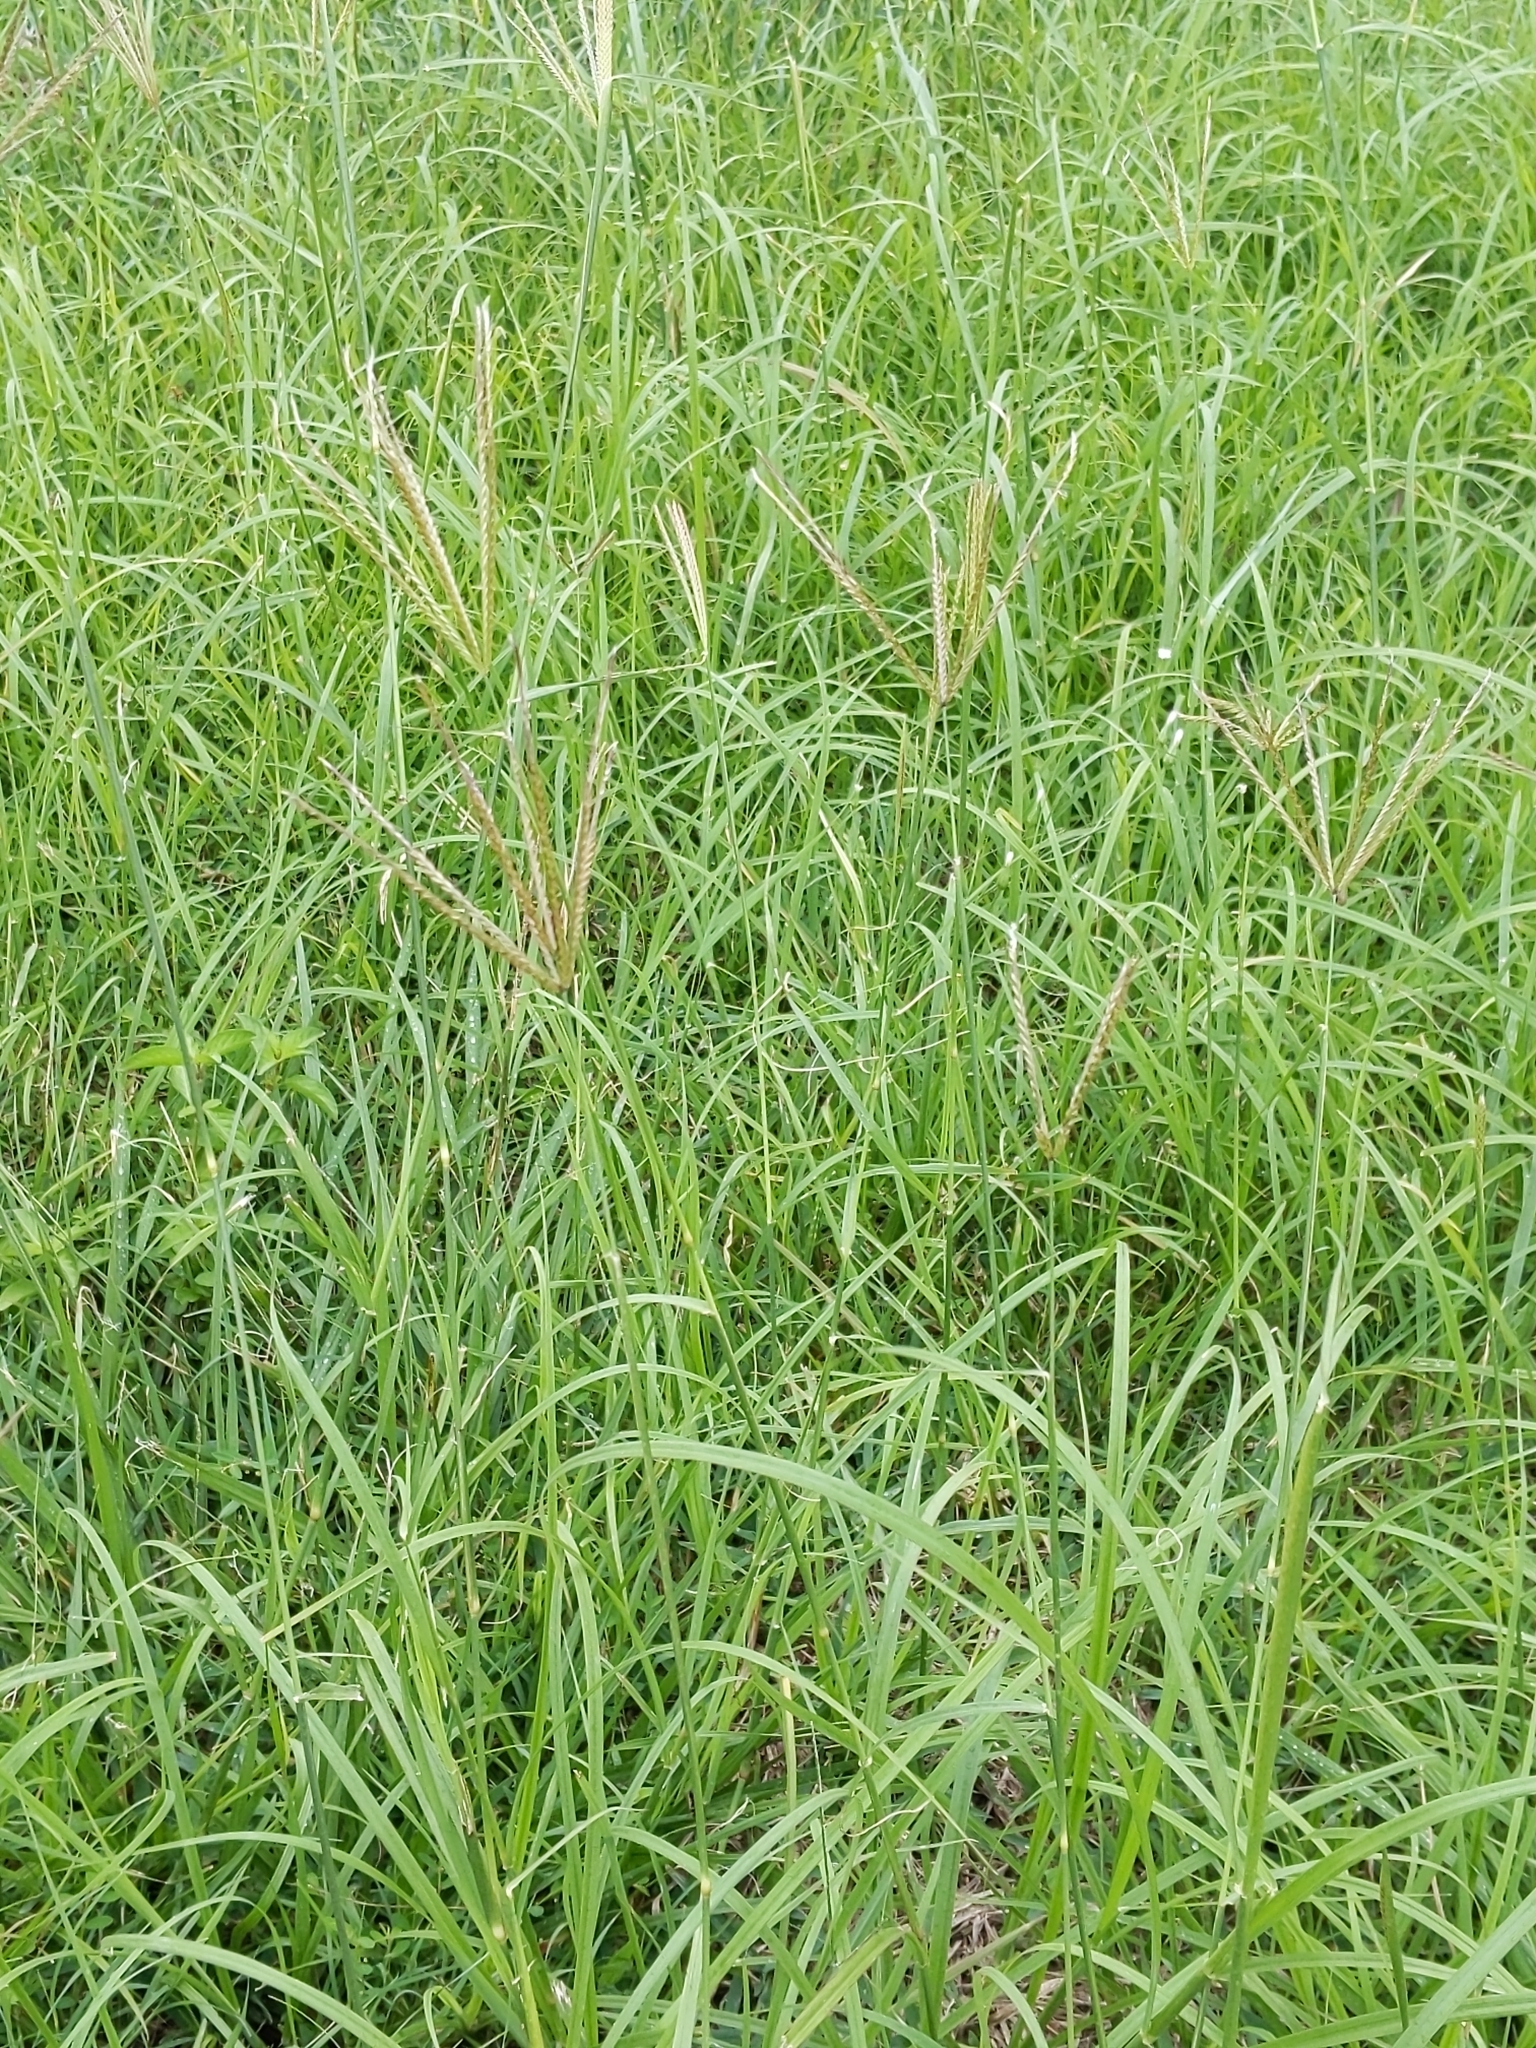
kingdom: Plantae
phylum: Tracheophyta
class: Liliopsida
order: Poales
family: Poaceae
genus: Chloris
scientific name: Chloris gayana
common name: Rhodes grass
